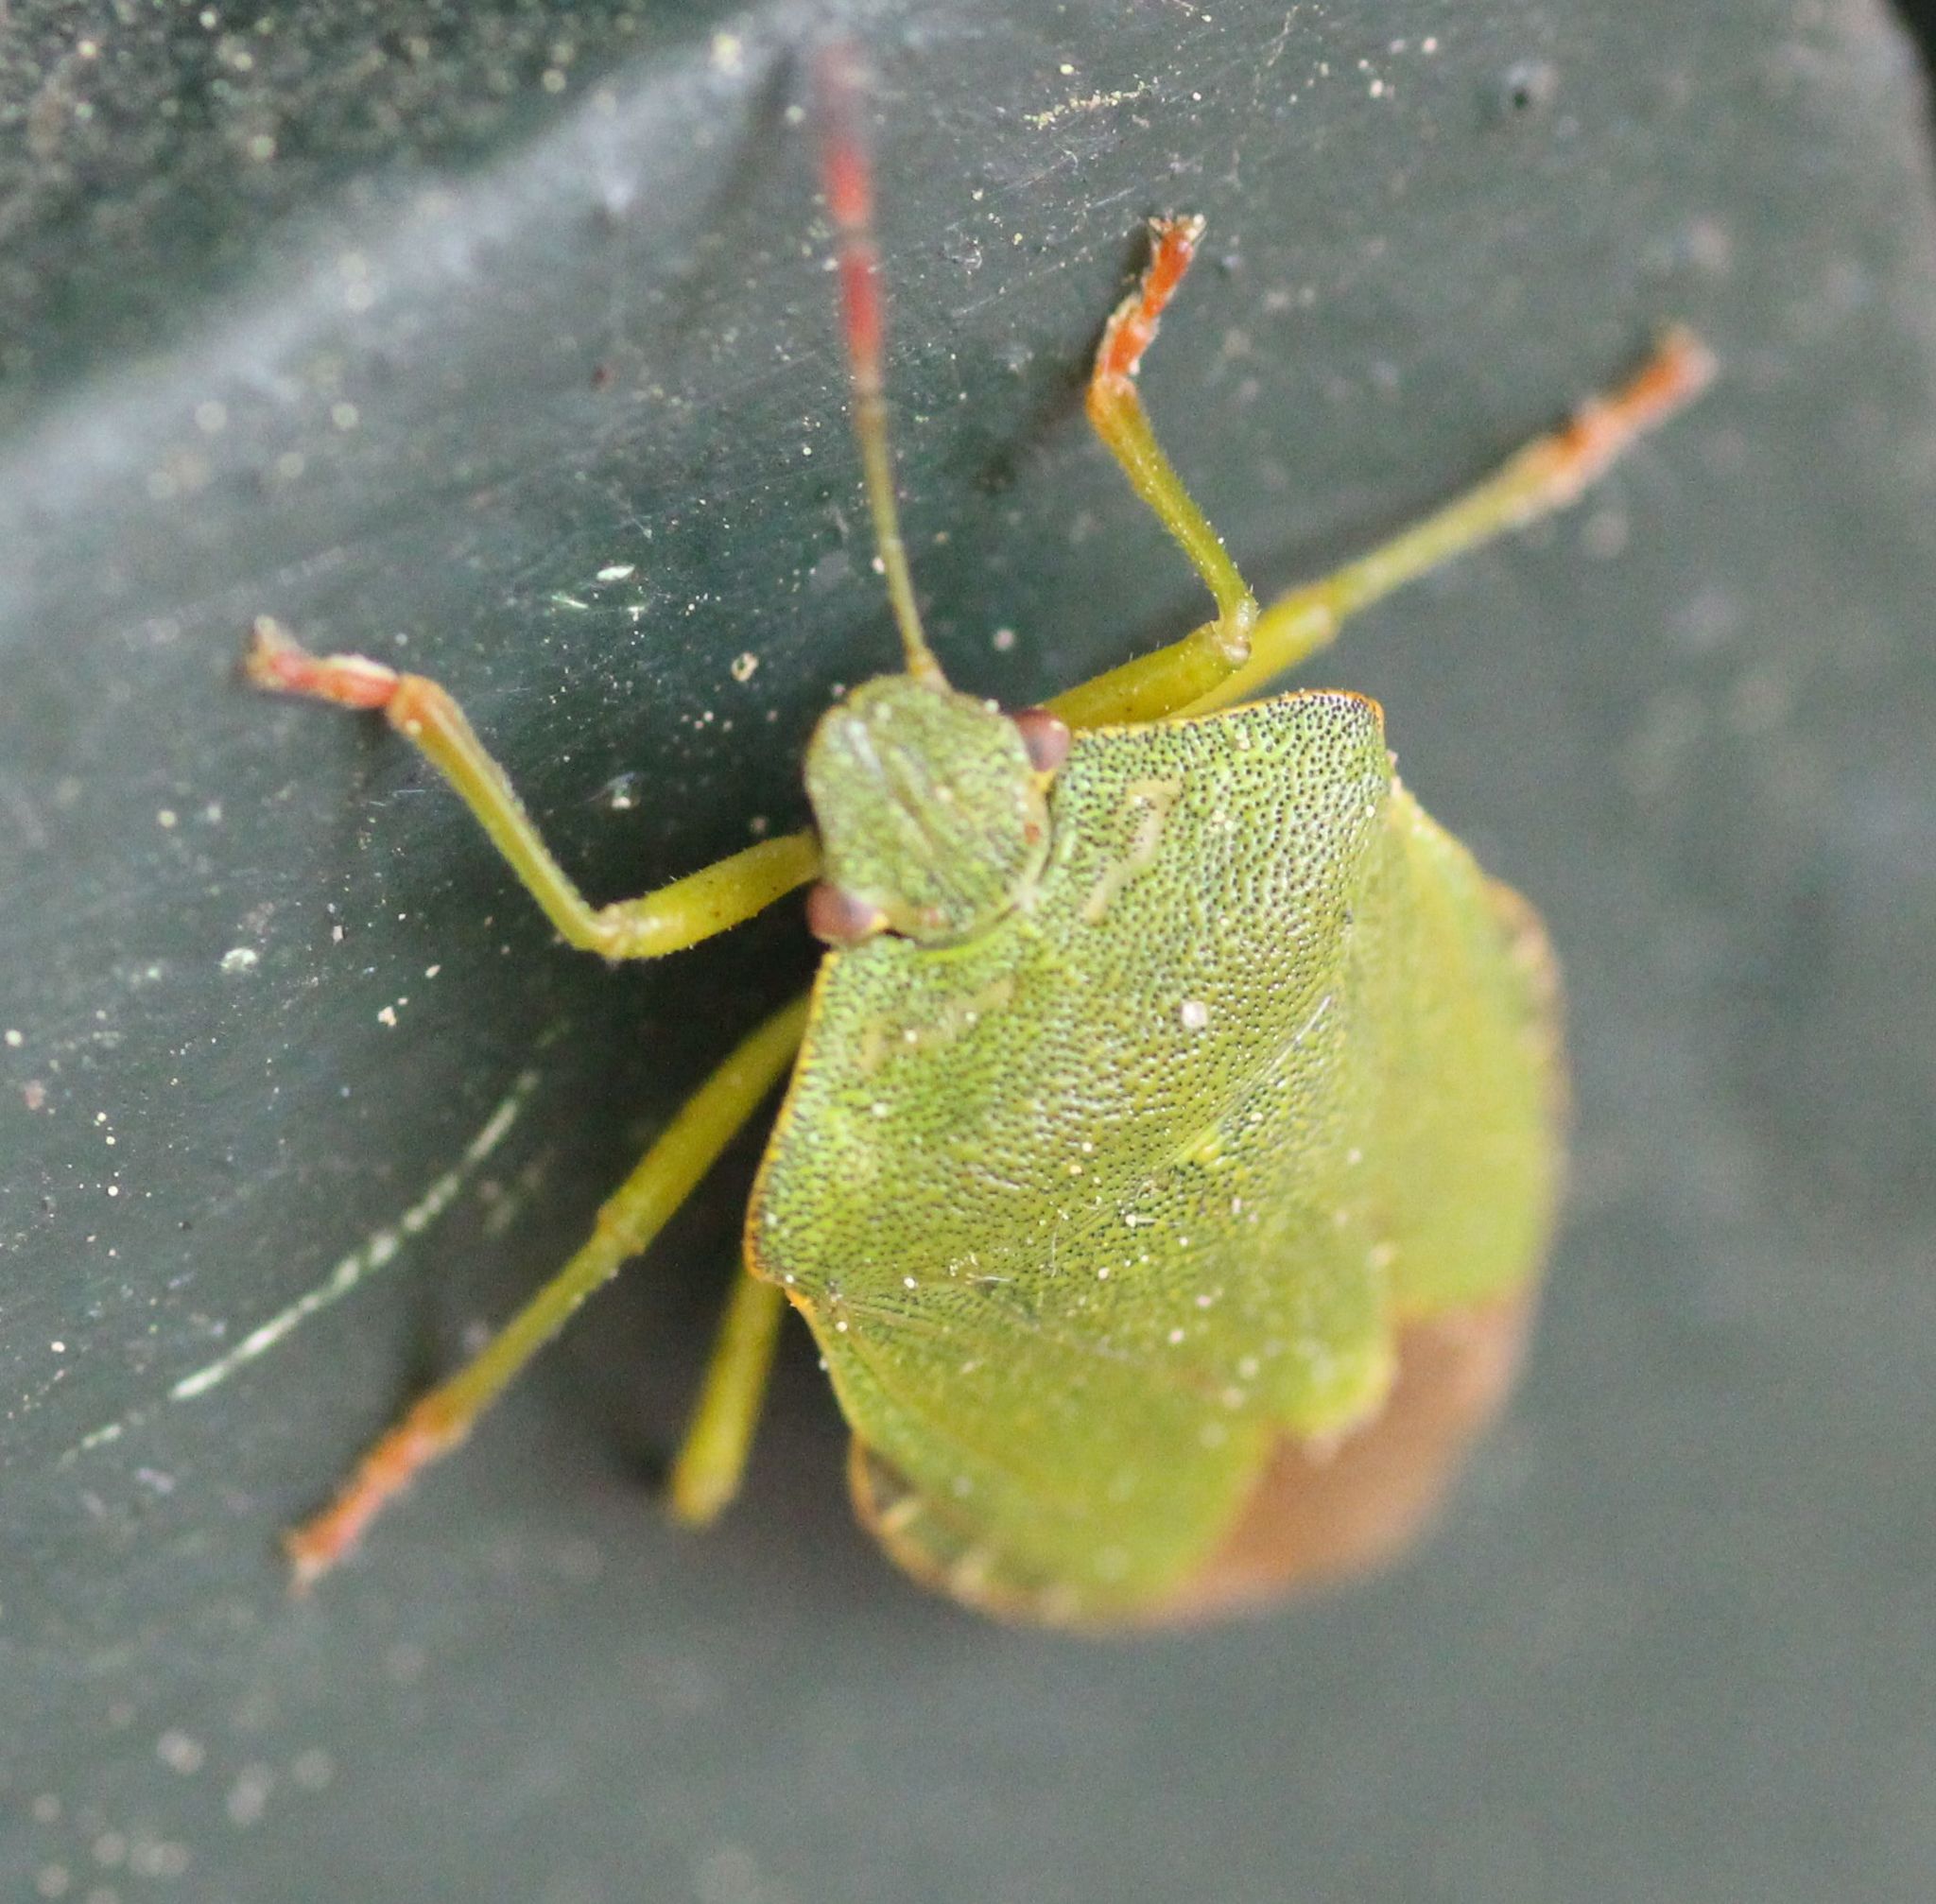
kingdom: Animalia
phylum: Arthropoda
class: Insecta
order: Hemiptera
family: Pentatomidae
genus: Palomena
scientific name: Palomena prasina
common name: Green shieldbug
